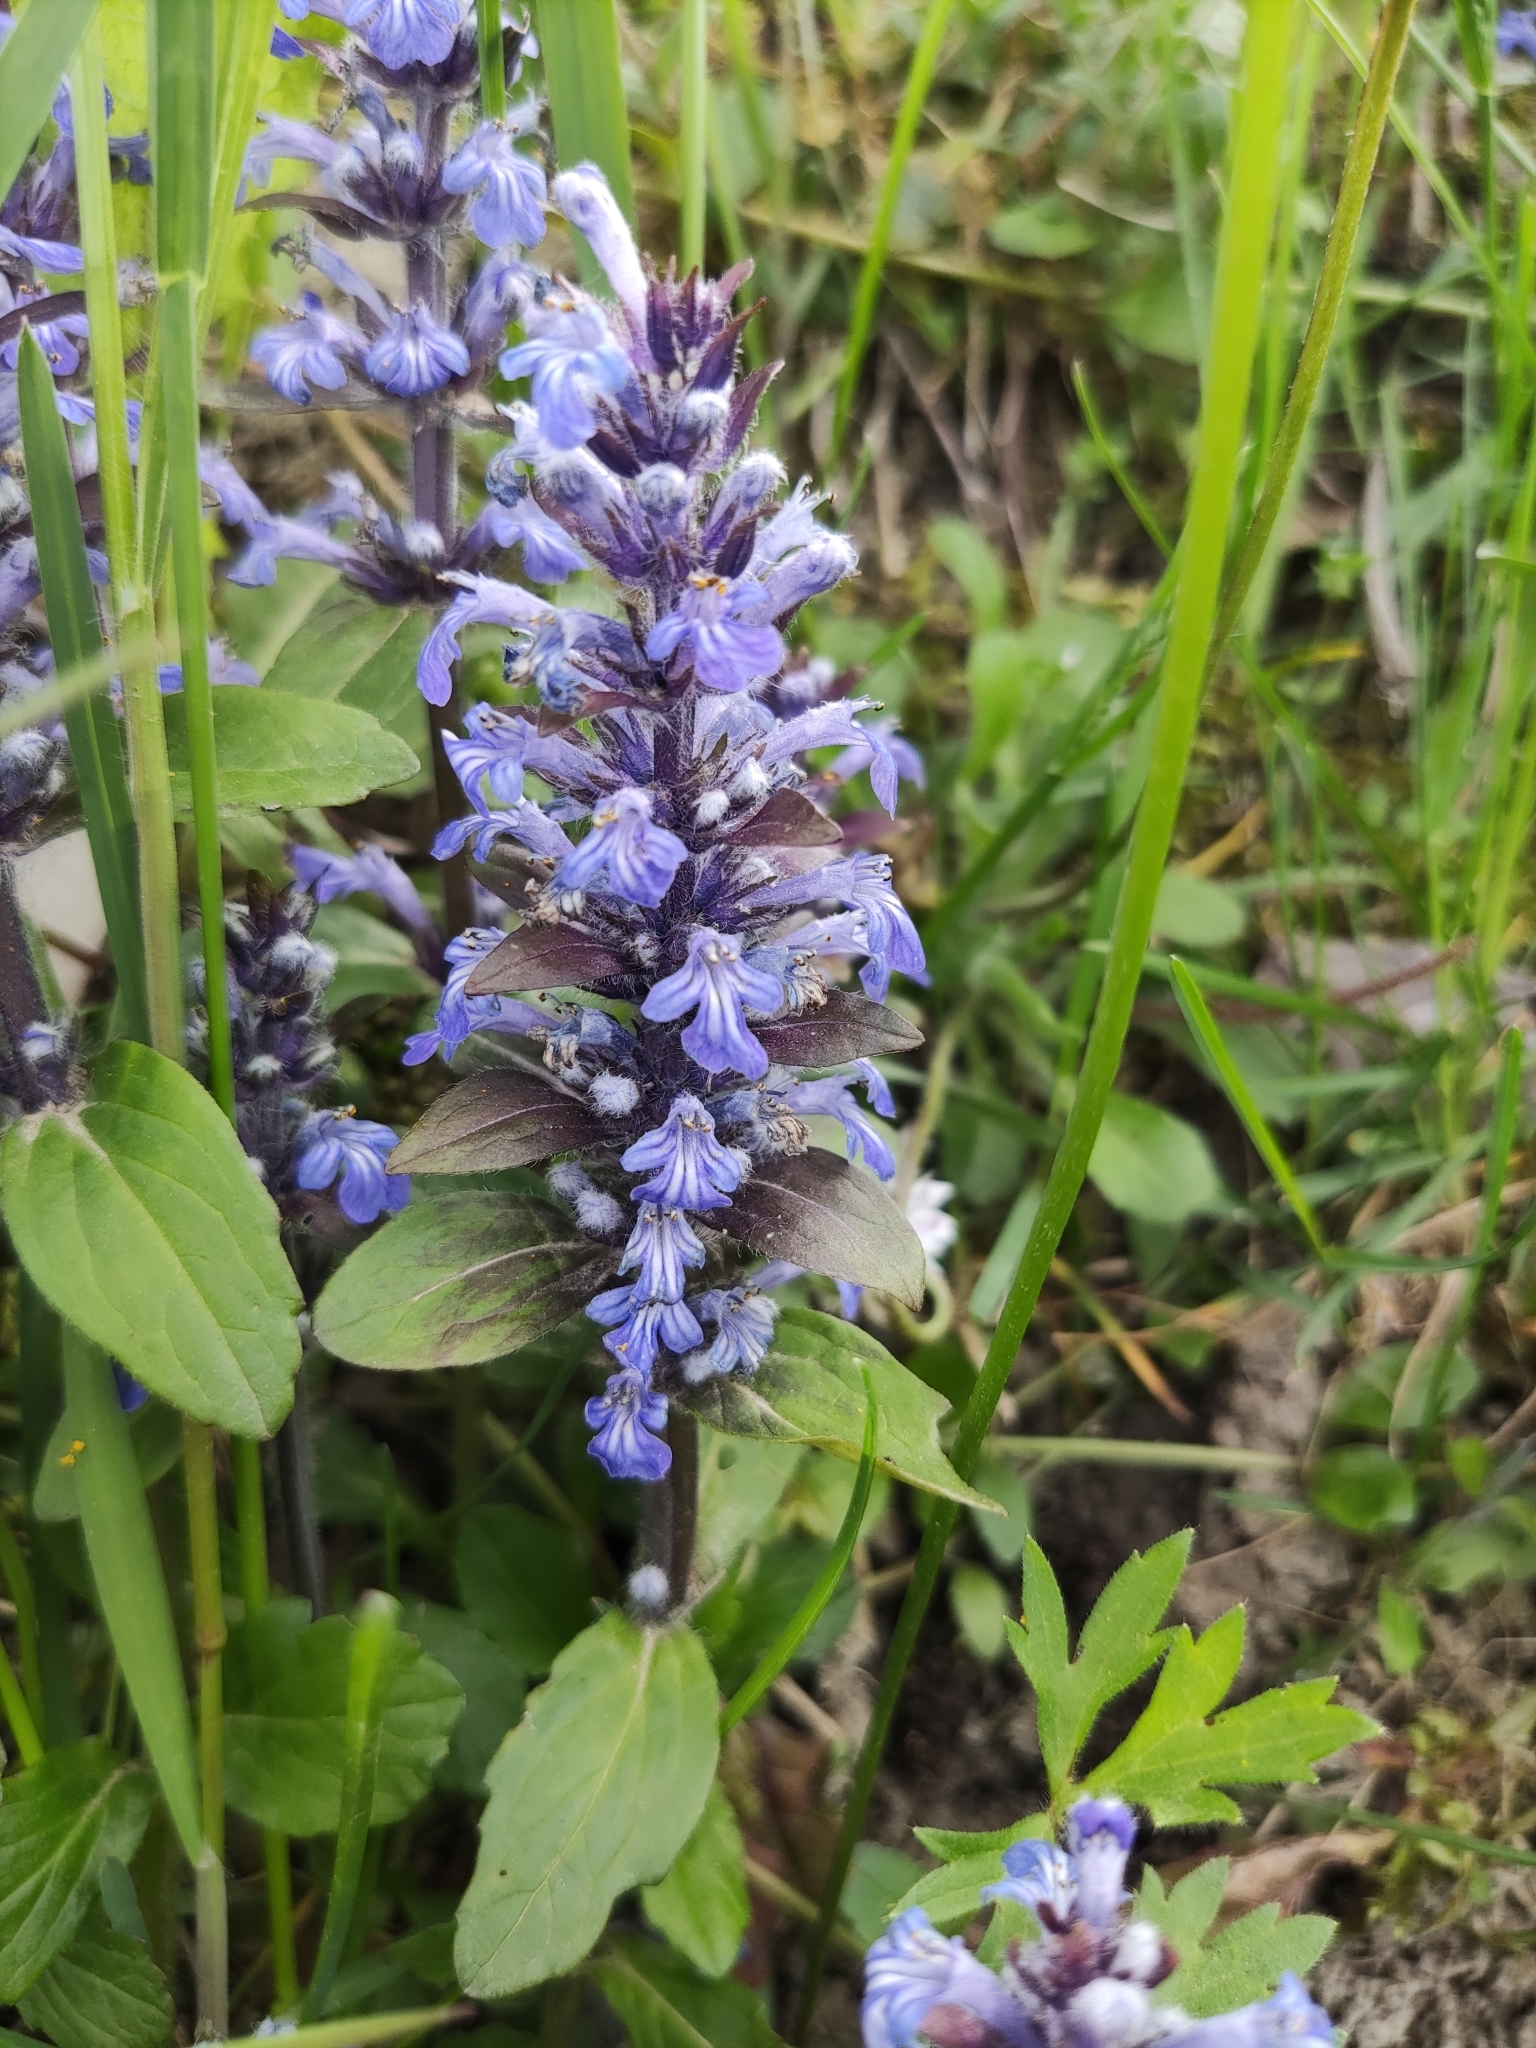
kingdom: Plantae
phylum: Tracheophyta
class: Magnoliopsida
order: Lamiales
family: Lamiaceae
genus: Ajuga
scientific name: Ajuga reptans
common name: Bugle
